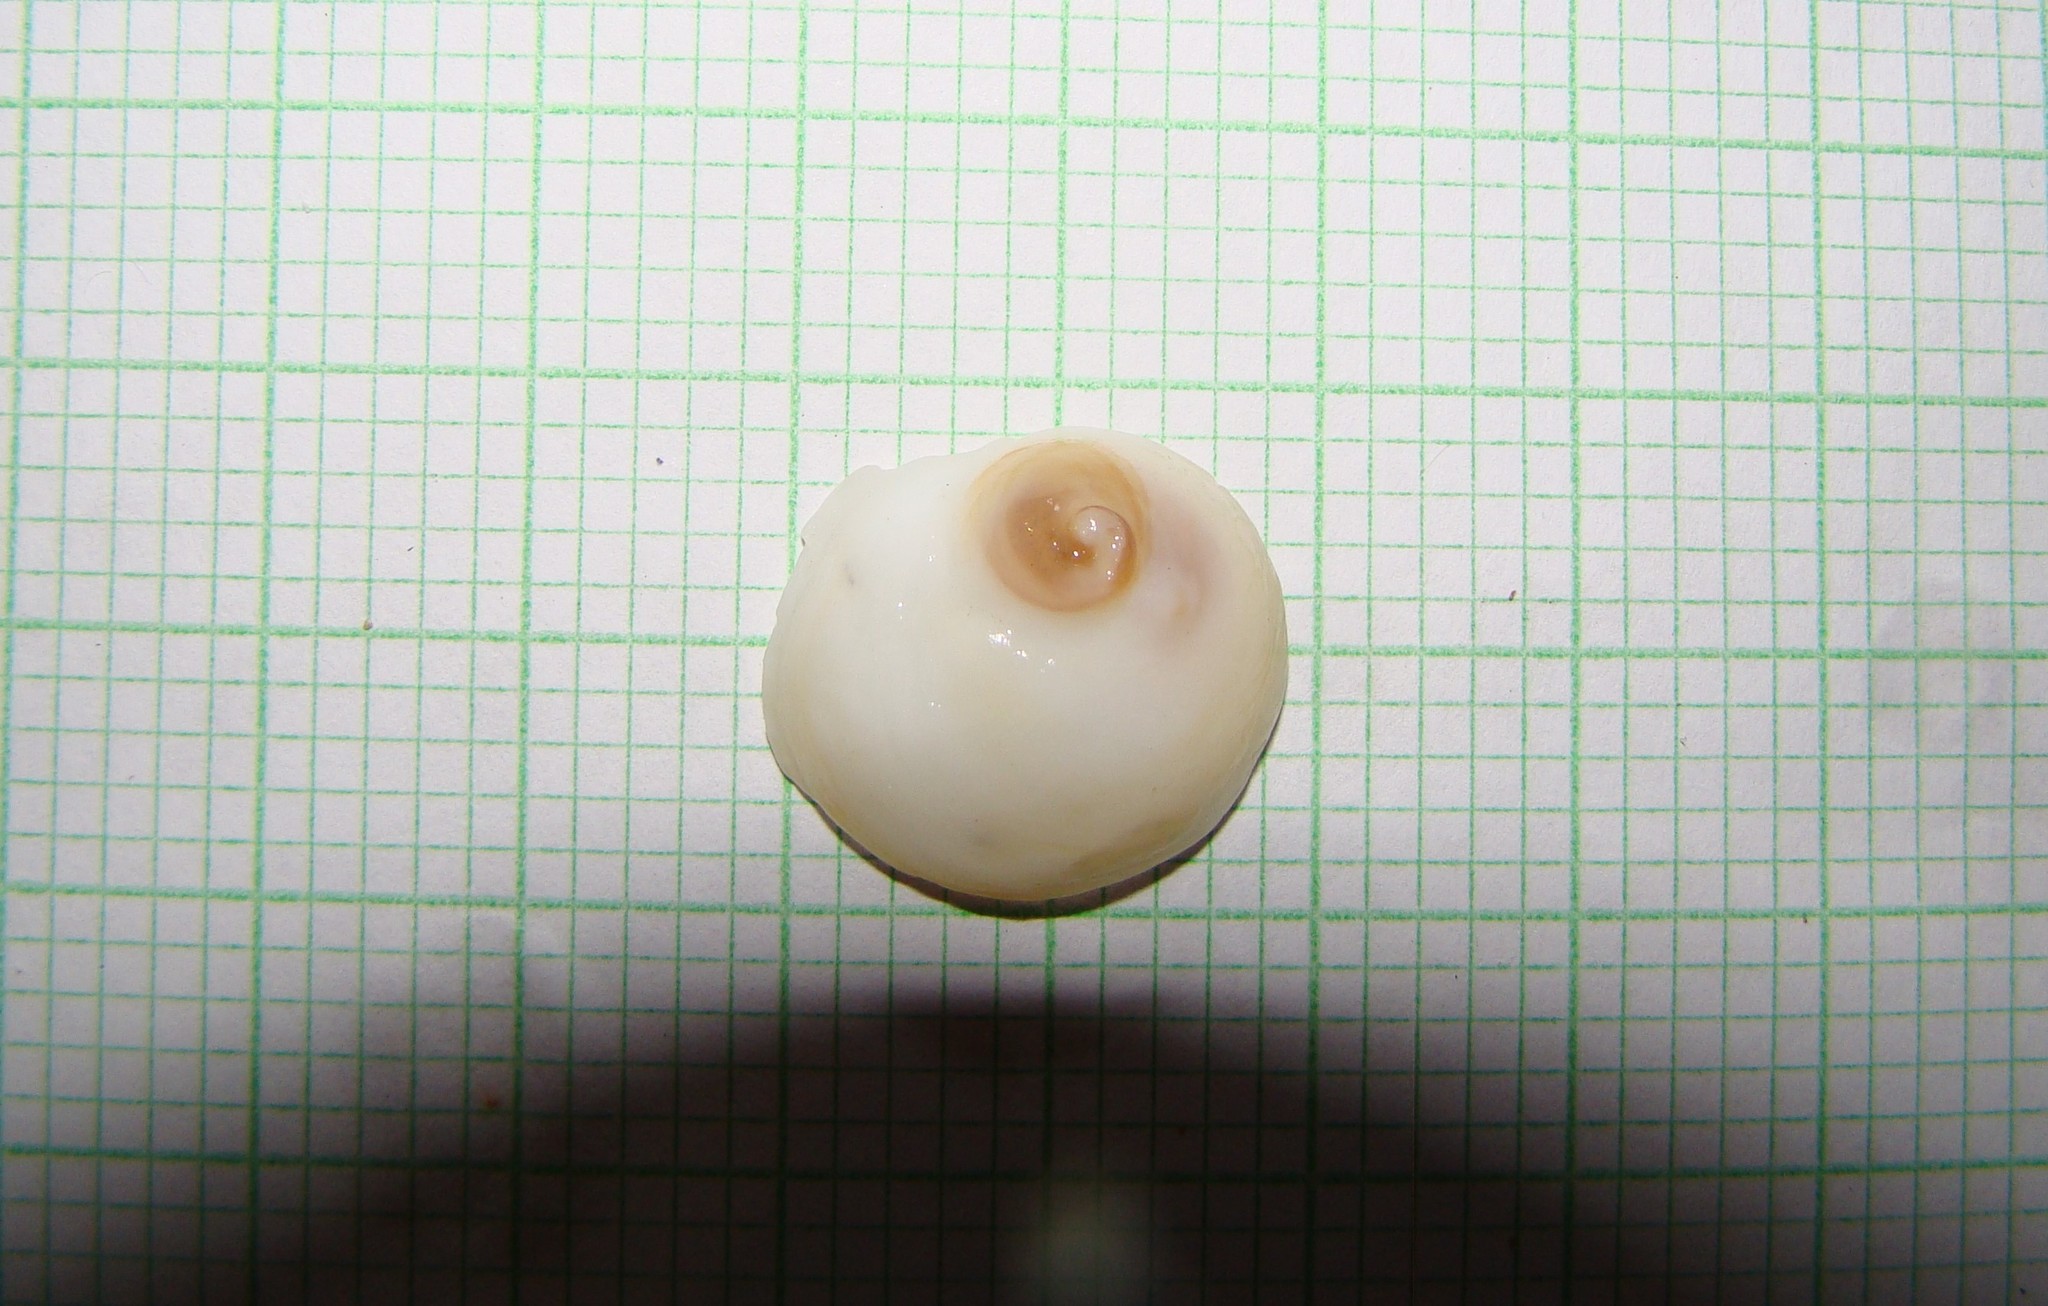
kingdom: Animalia
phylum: Mollusca
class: Gastropoda
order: Littorinimorpha
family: Calyptraeidae
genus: Sigapatella
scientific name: Sigapatella novaezelandiae
